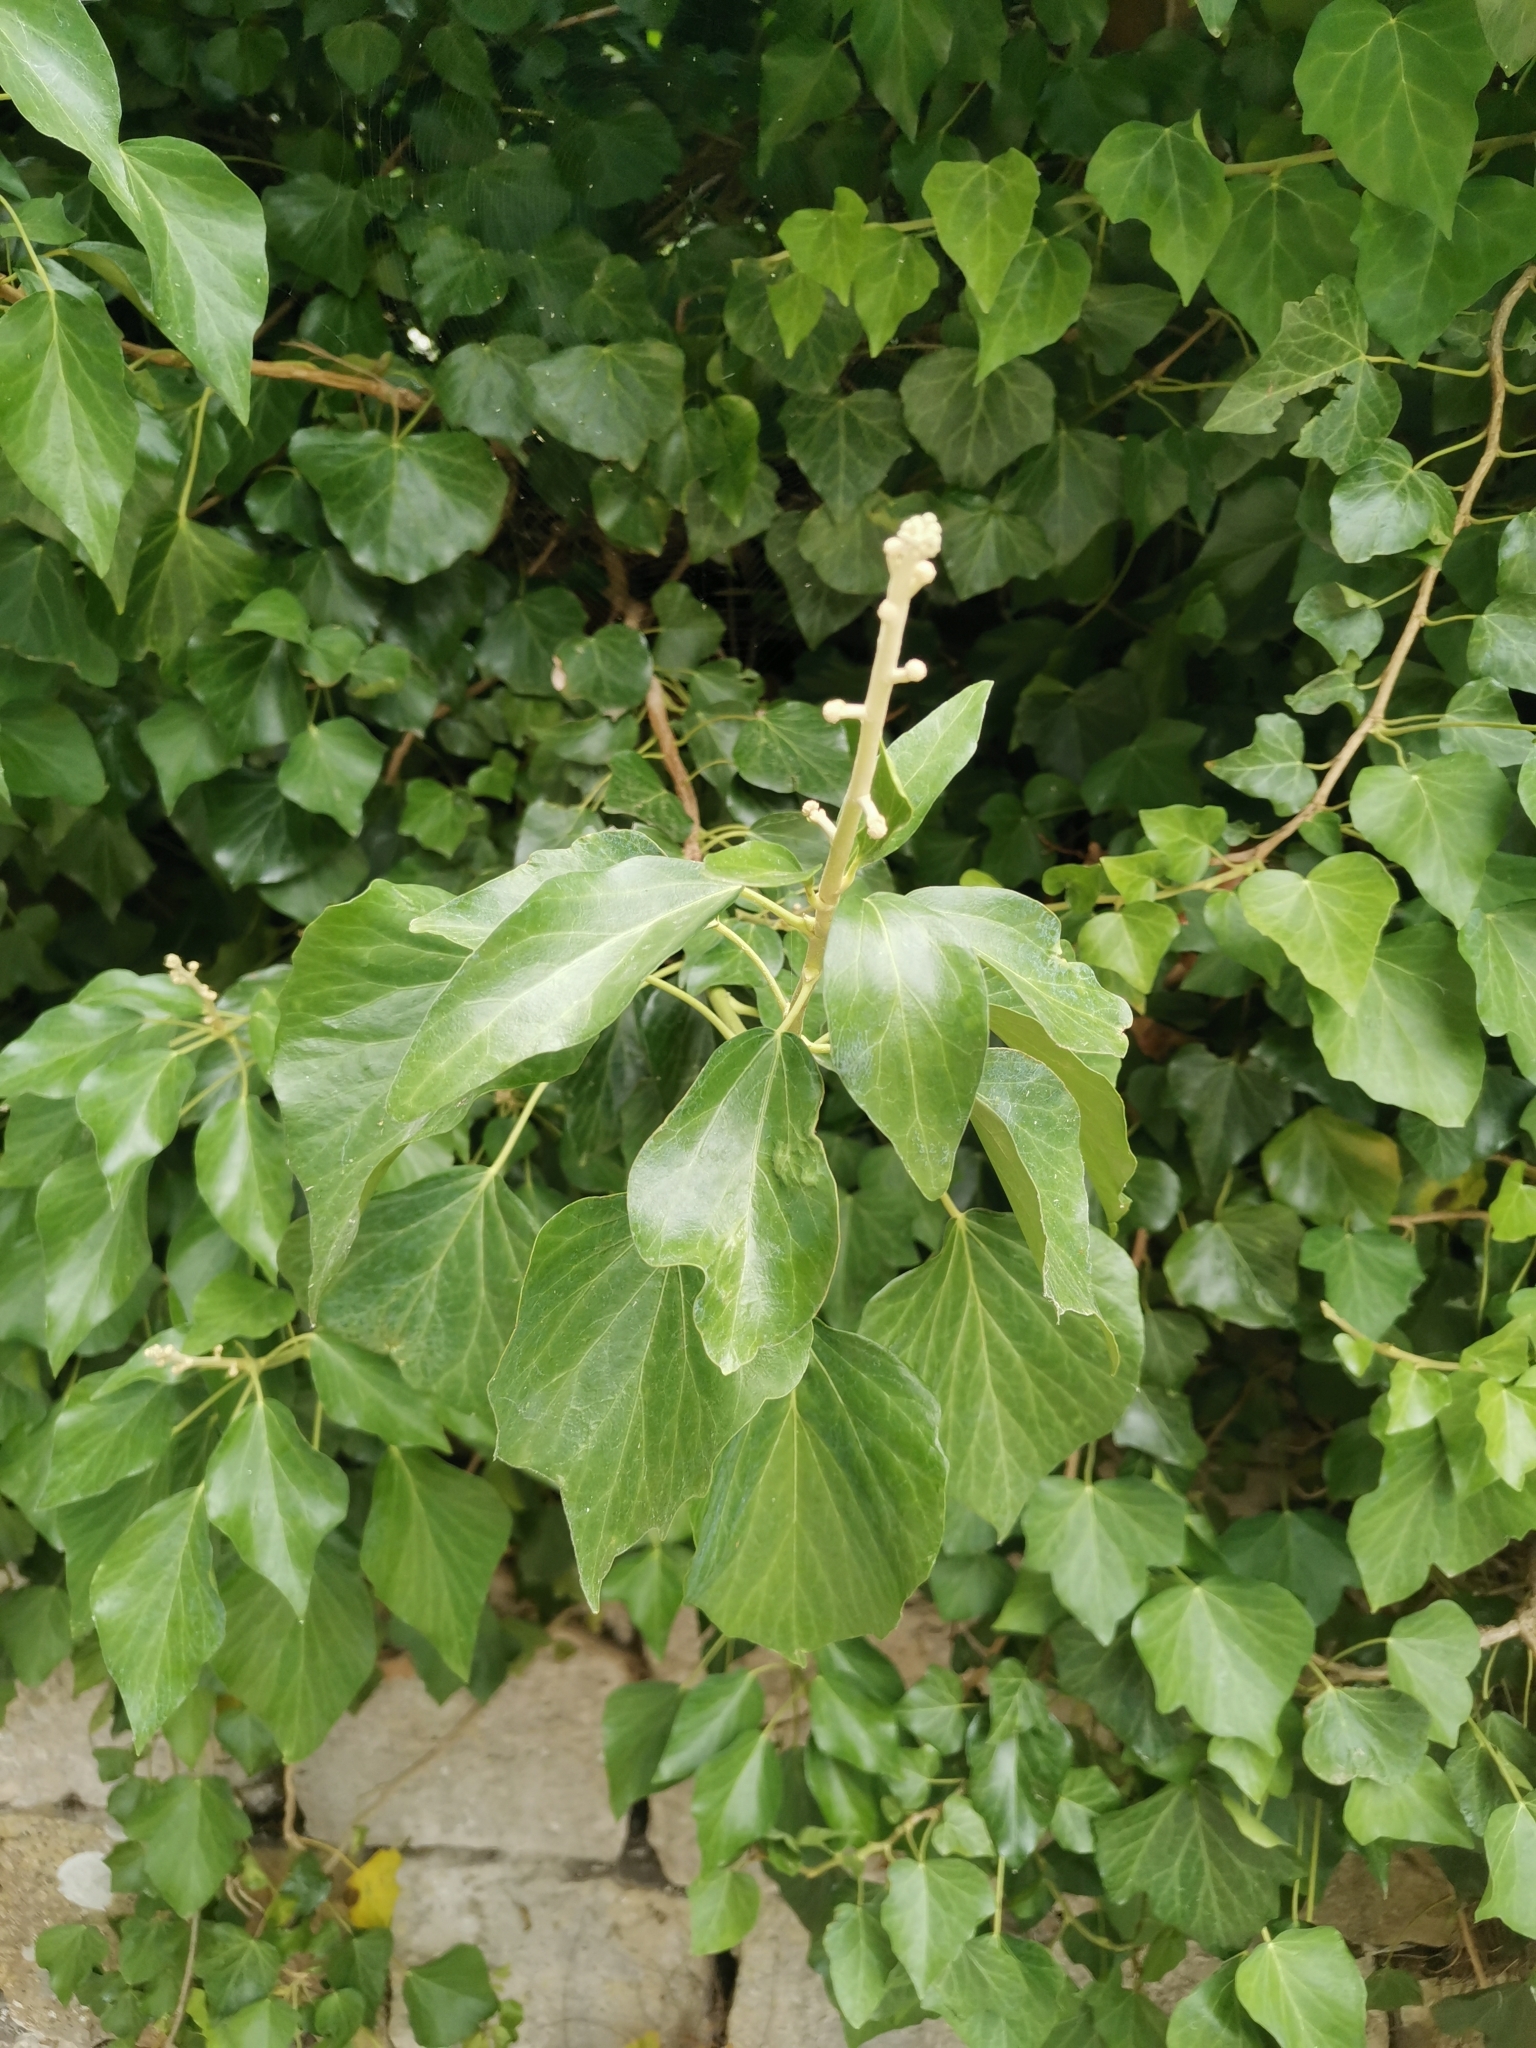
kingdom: Plantae
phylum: Tracheophyta
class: Magnoliopsida
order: Apiales
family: Araliaceae
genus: Hedera
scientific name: Hedera helix
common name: Ivy
